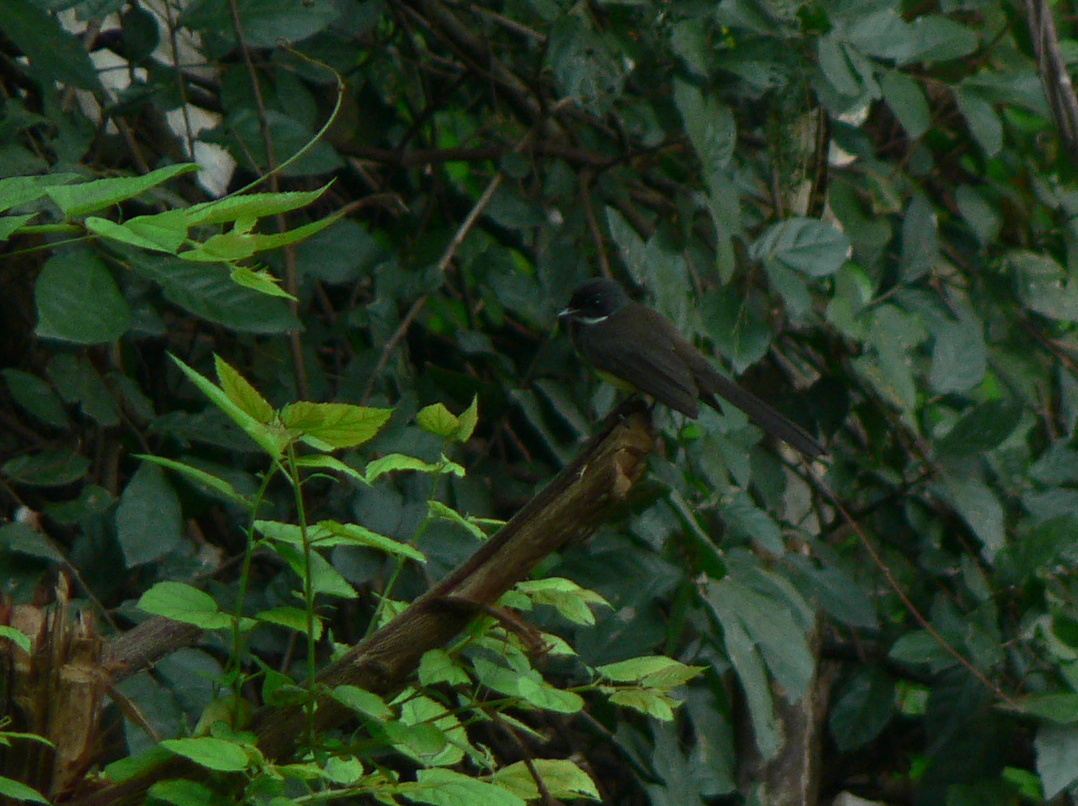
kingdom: Animalia
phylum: Chordata
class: Aves
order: Passeriformes
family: Rhipiduridae
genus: Rhipidura
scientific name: Rhipidura javanica
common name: Pied fantail
